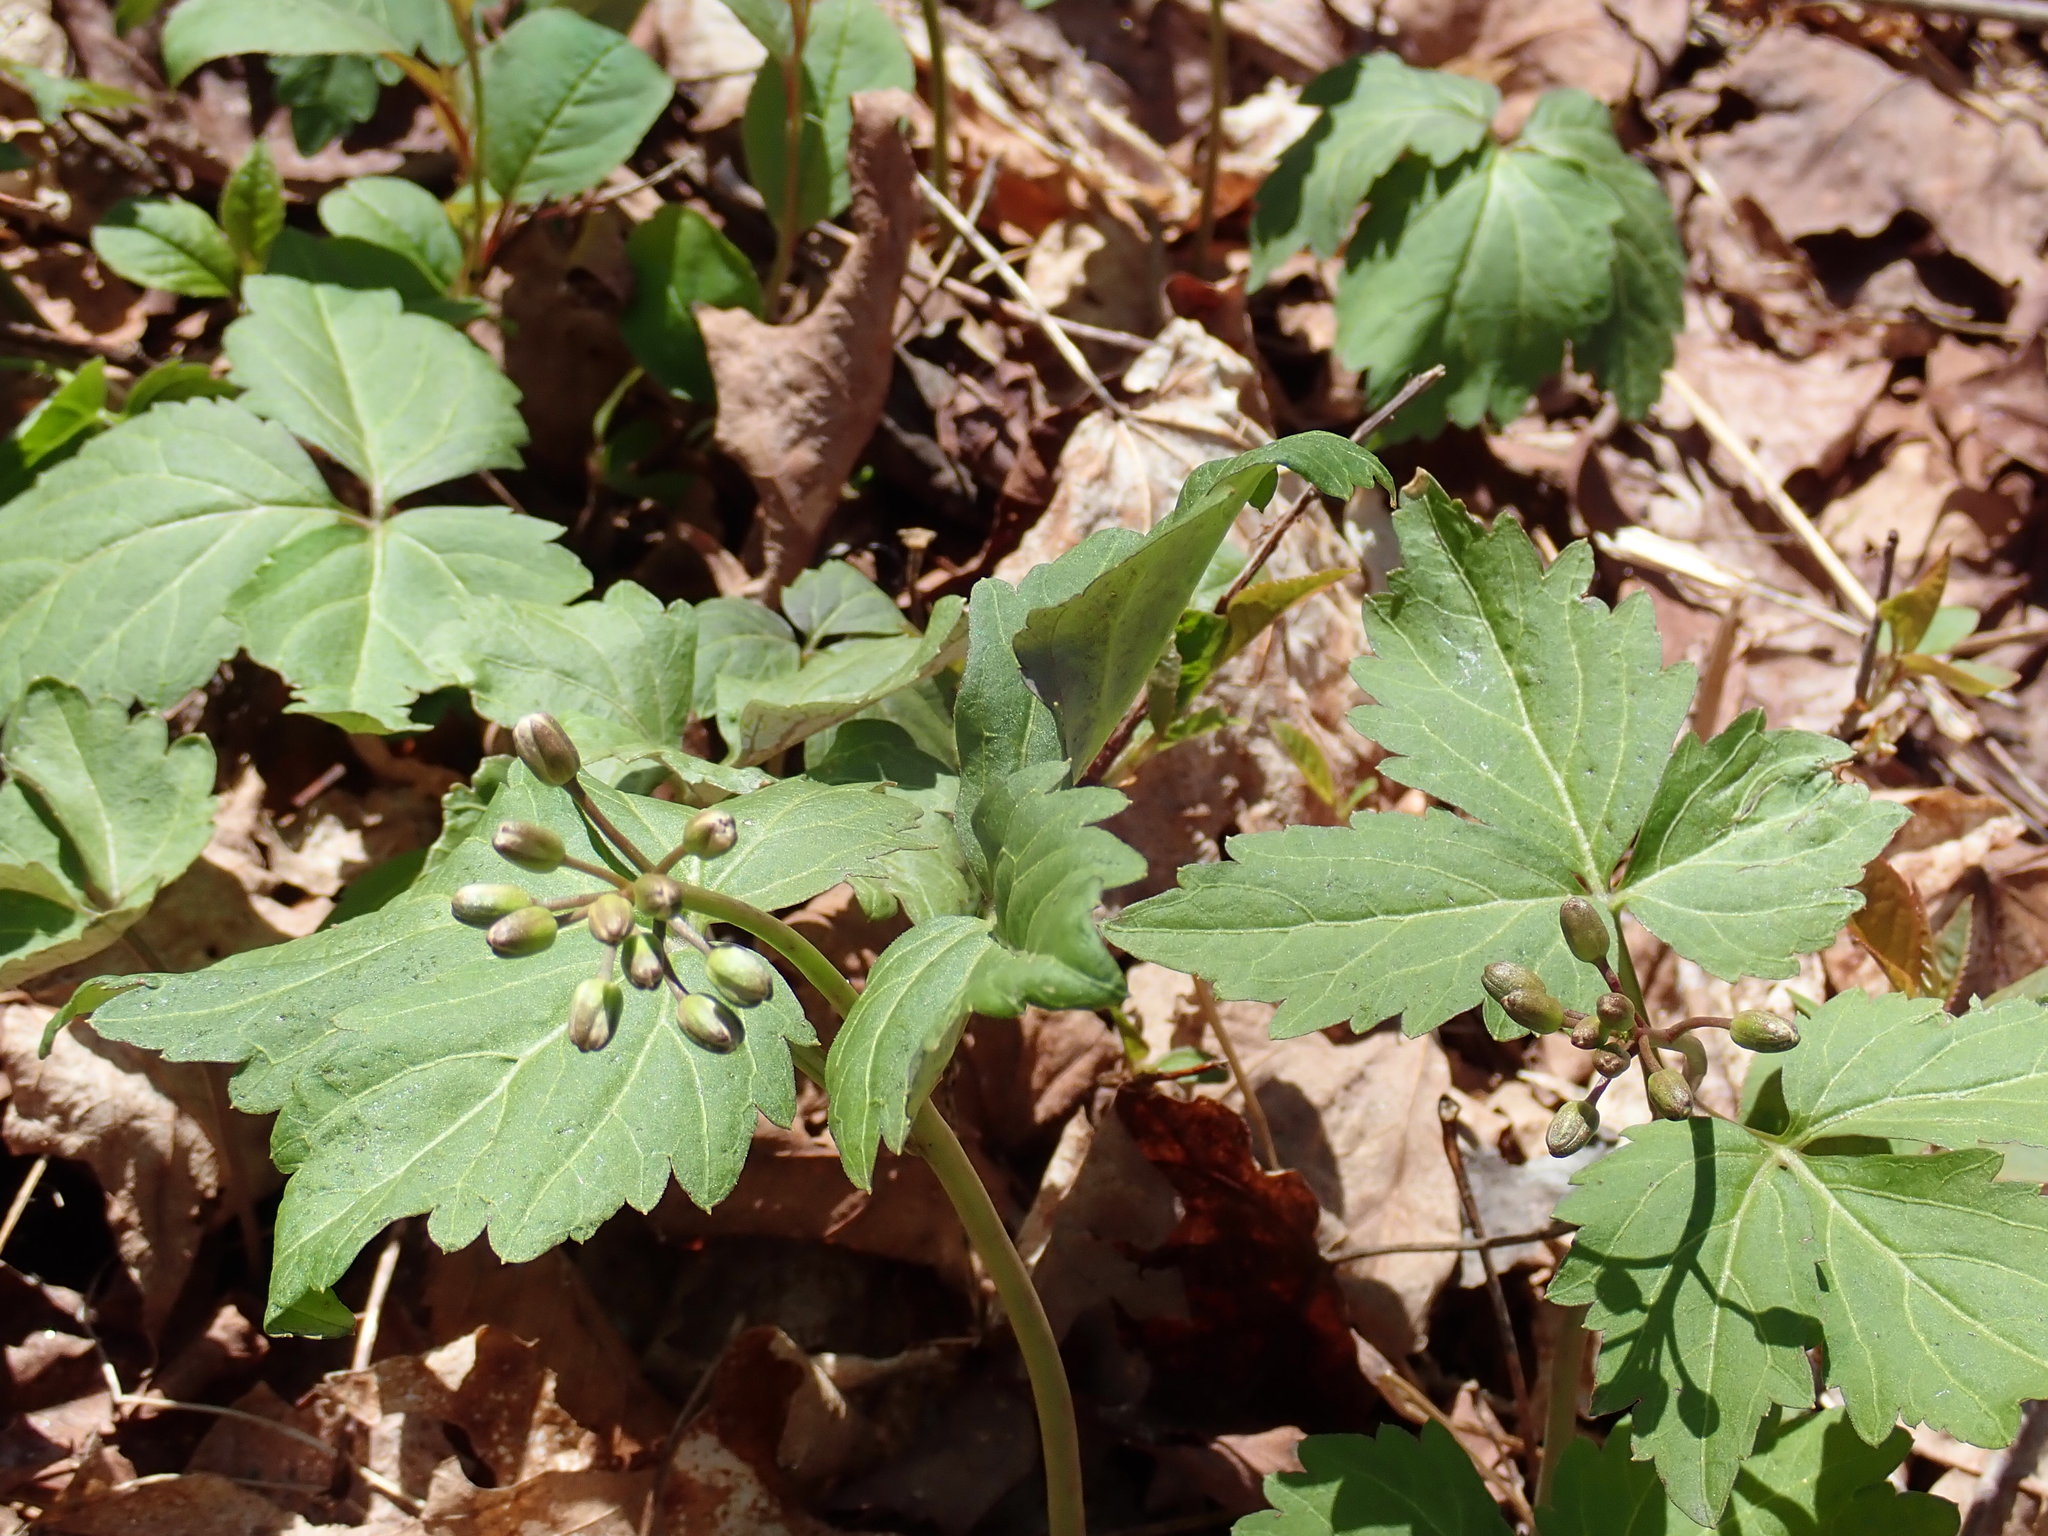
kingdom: Plantae
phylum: Tracheophyta
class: Magnoliopsida
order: Brassicales
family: Brassicaceae
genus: Cardamine
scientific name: Cardamine diphylla
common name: Broad-leaved toothwort
